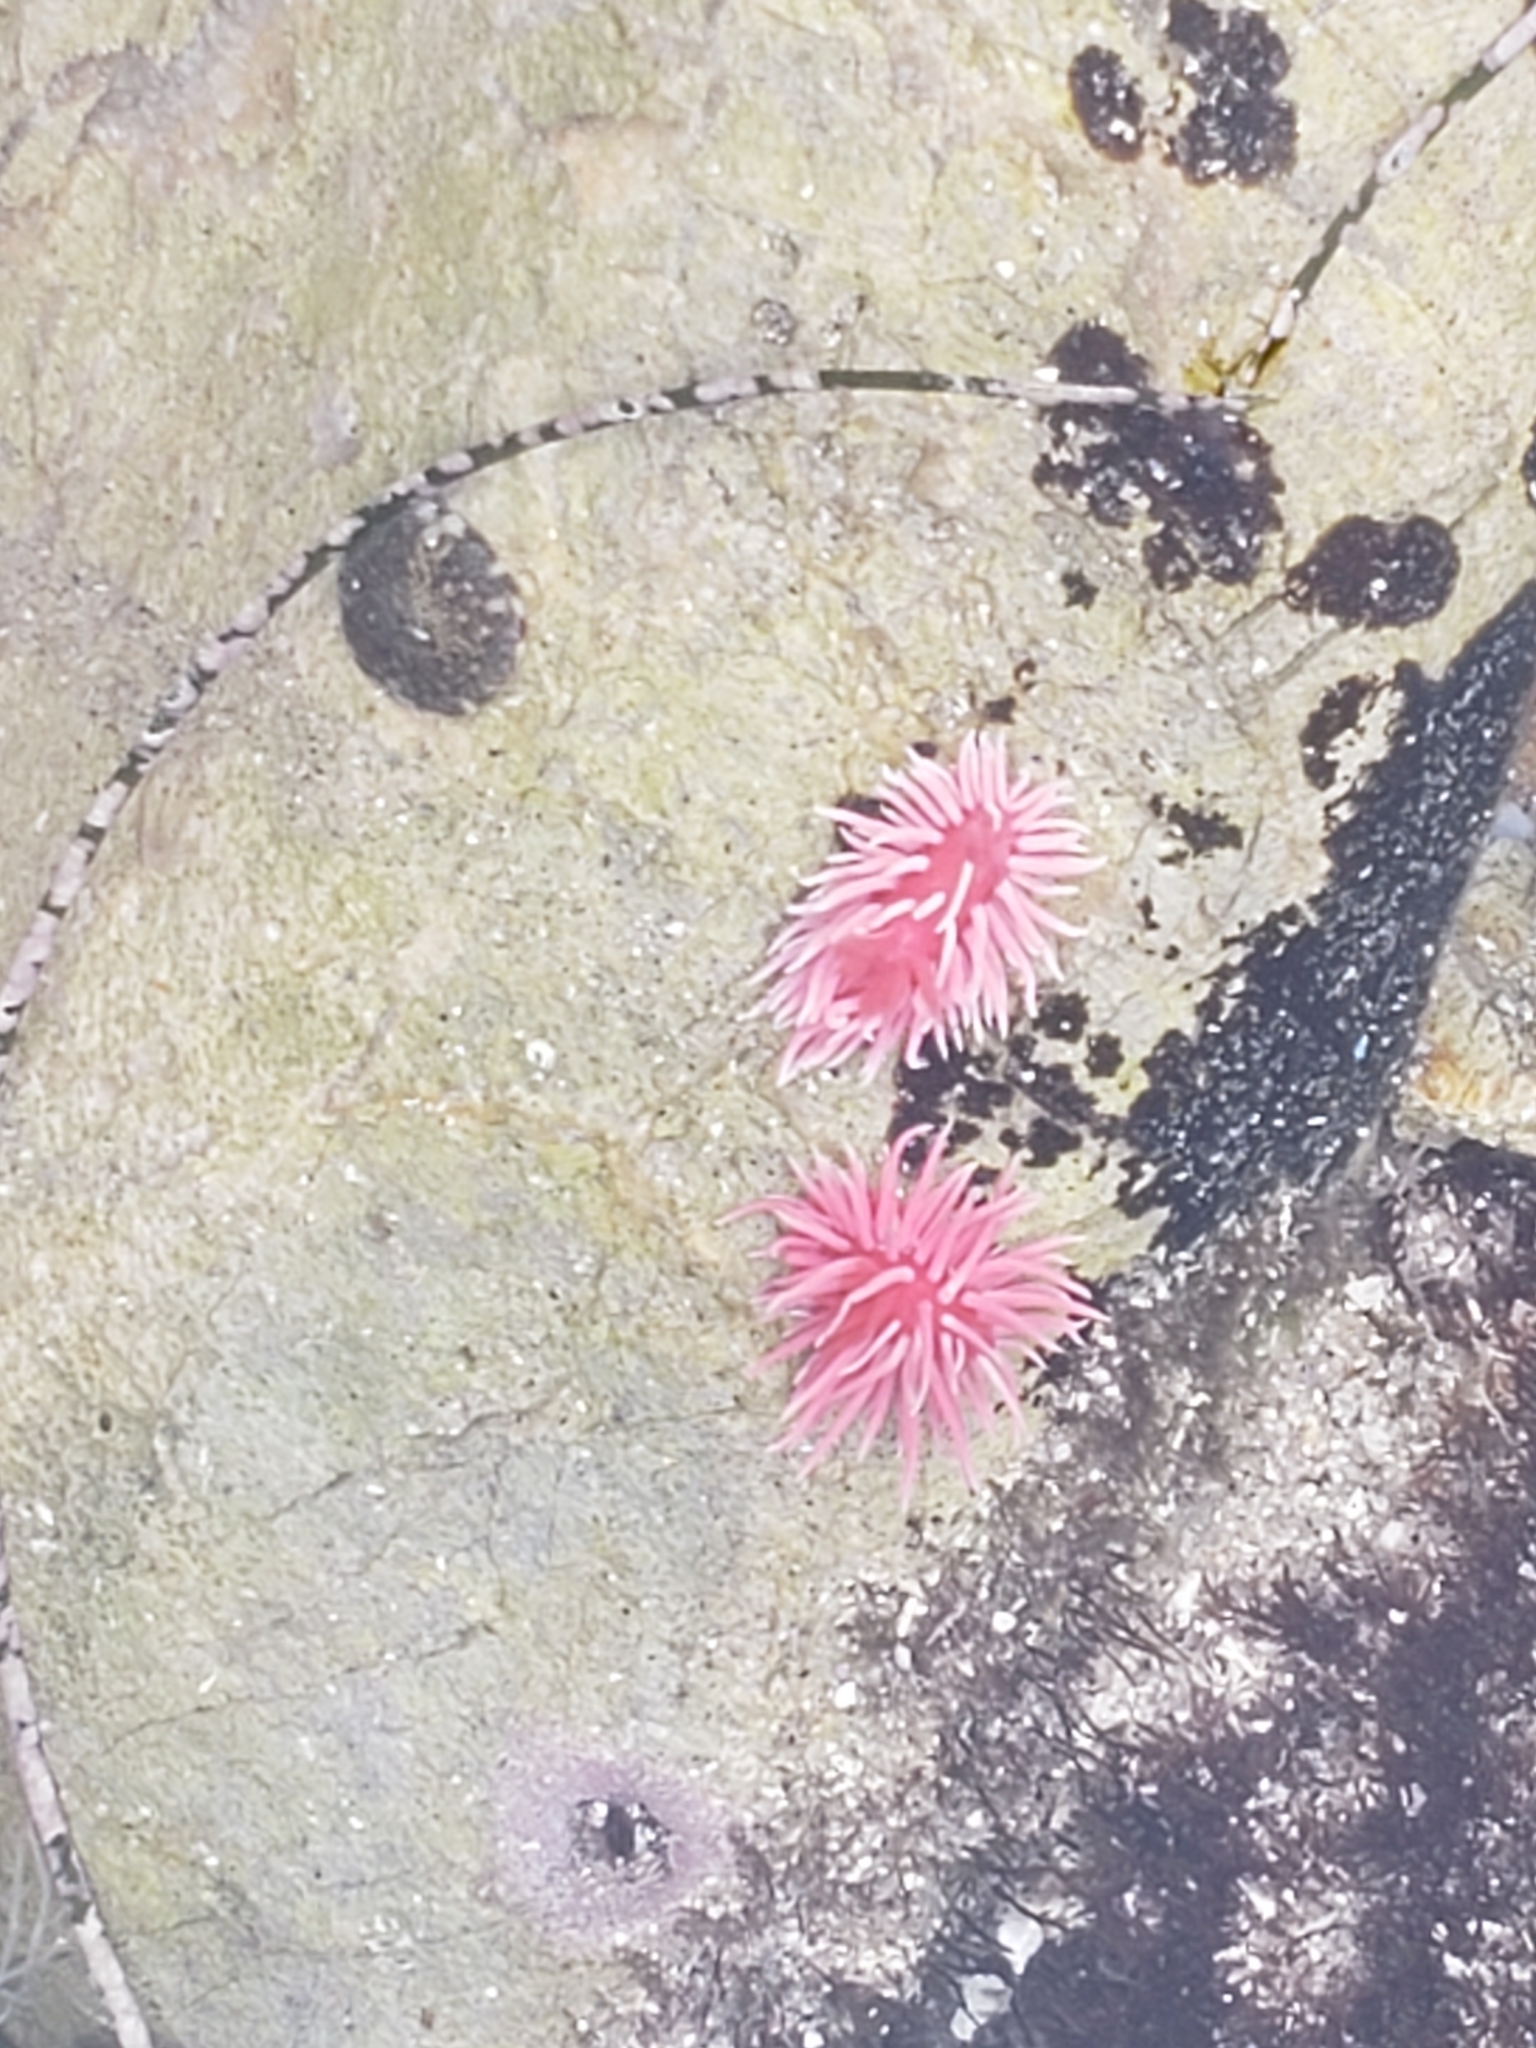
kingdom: Animalia
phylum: Mollusca
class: Gastropoda
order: Nudibranchia
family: Goniodorididae
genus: Okenia
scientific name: Okenia
